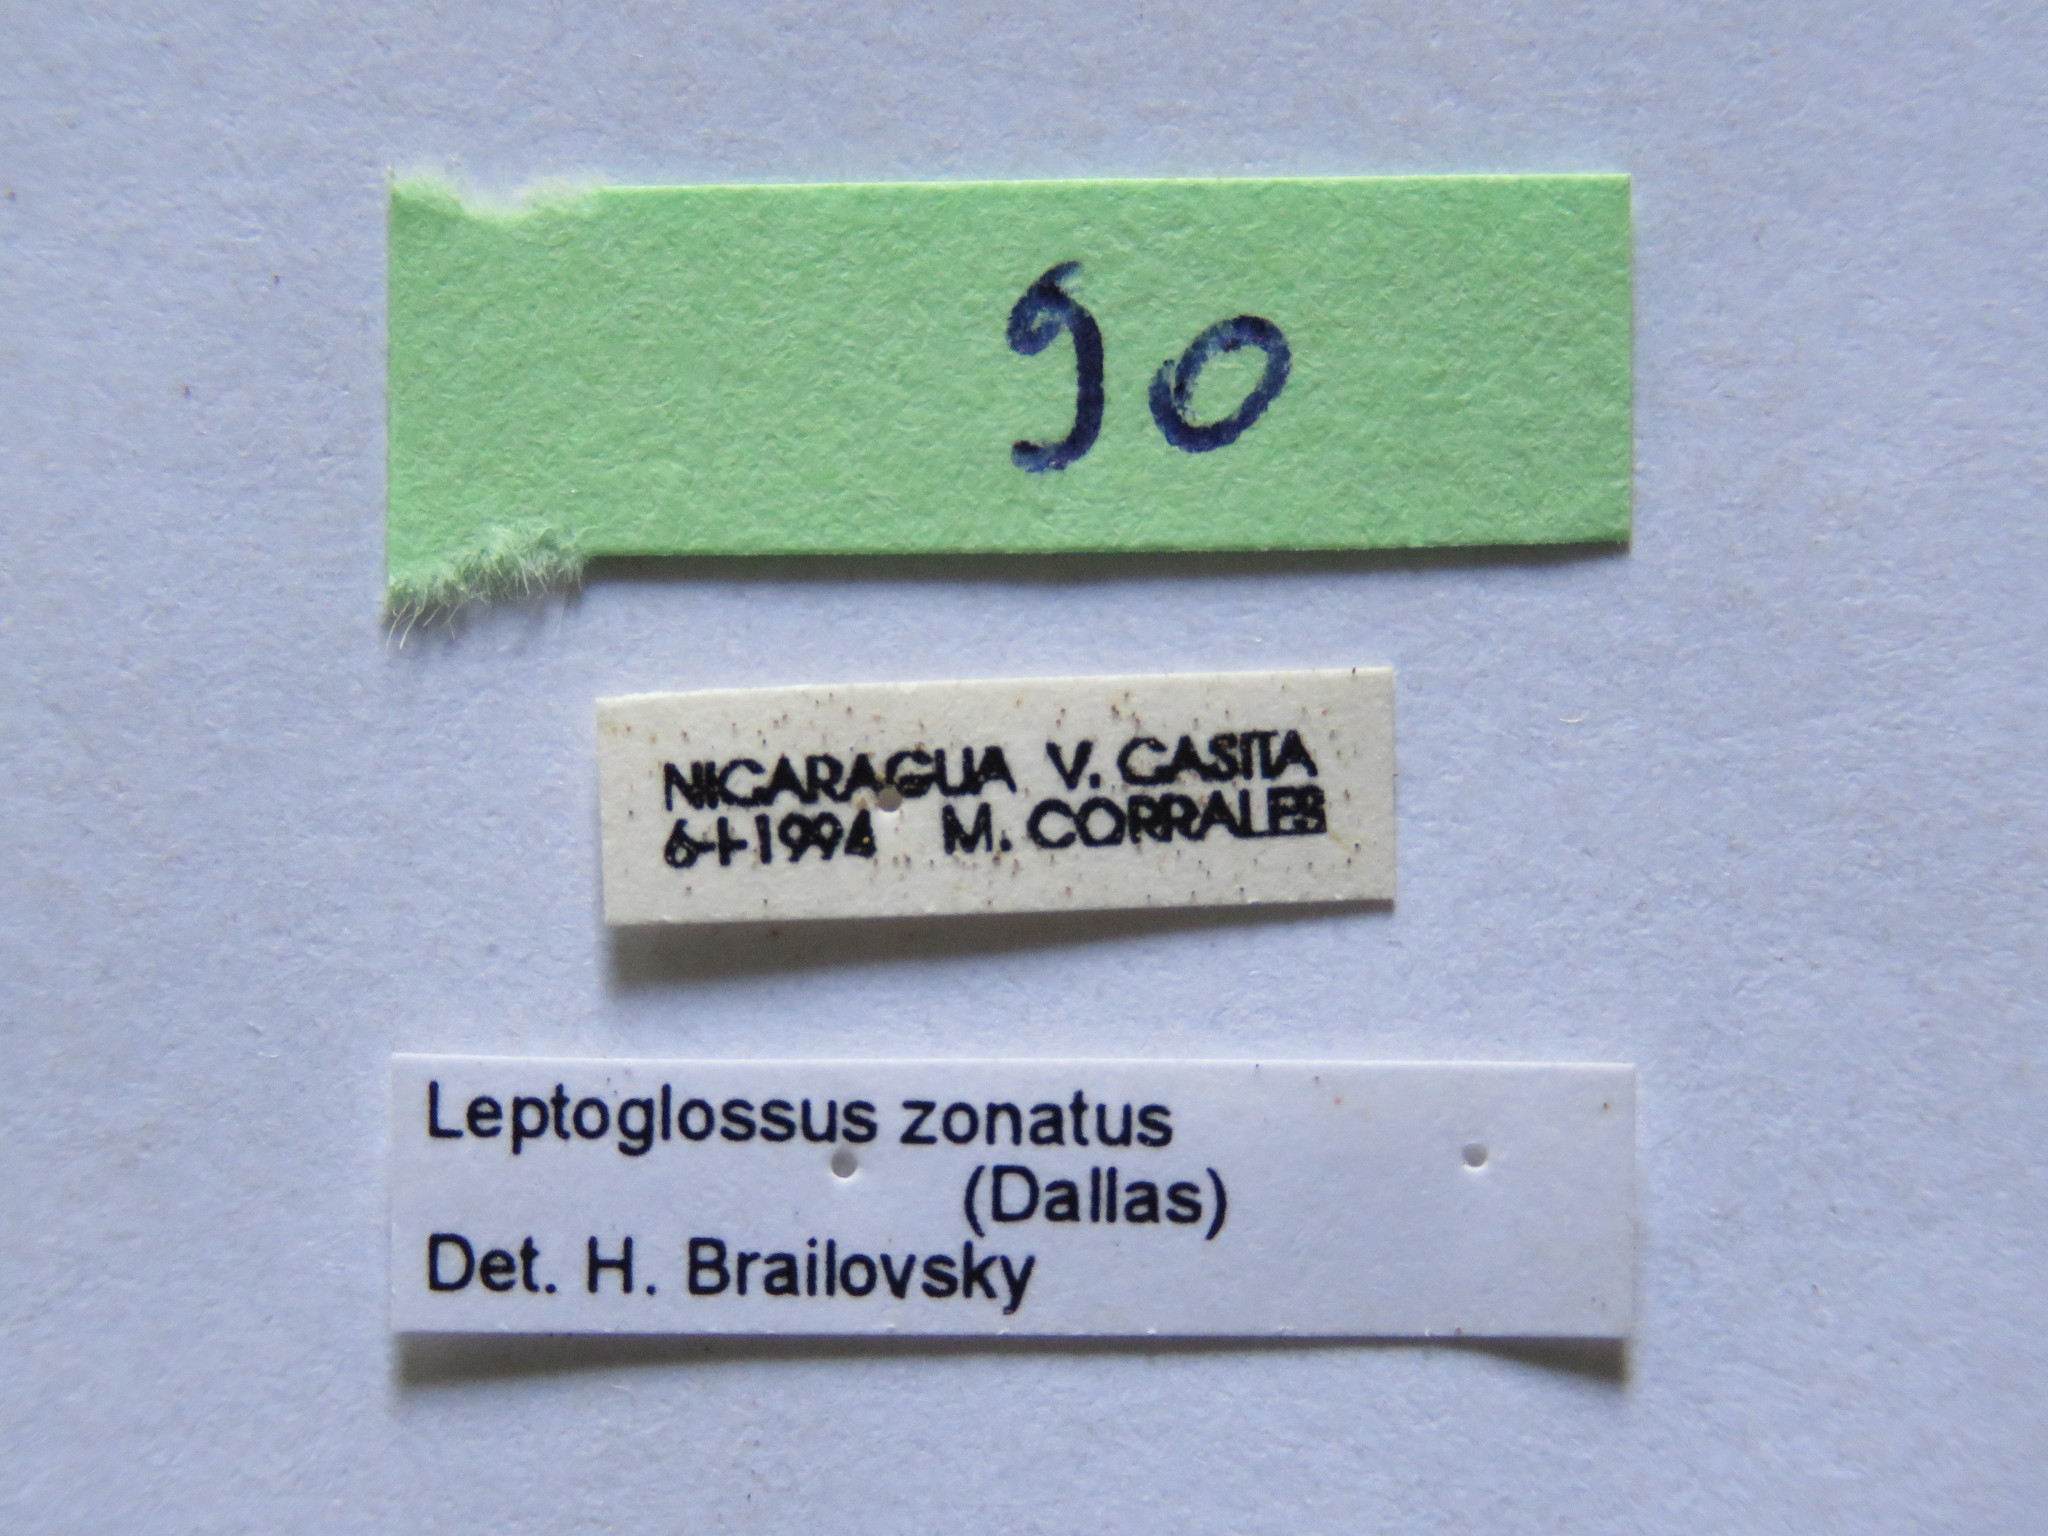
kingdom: Animalia
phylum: Arthropoda
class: Insecta
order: Hemiptera
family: Coreidae
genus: Leptoglossus
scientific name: Leptoglossus zonatus
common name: Large-legged bug
